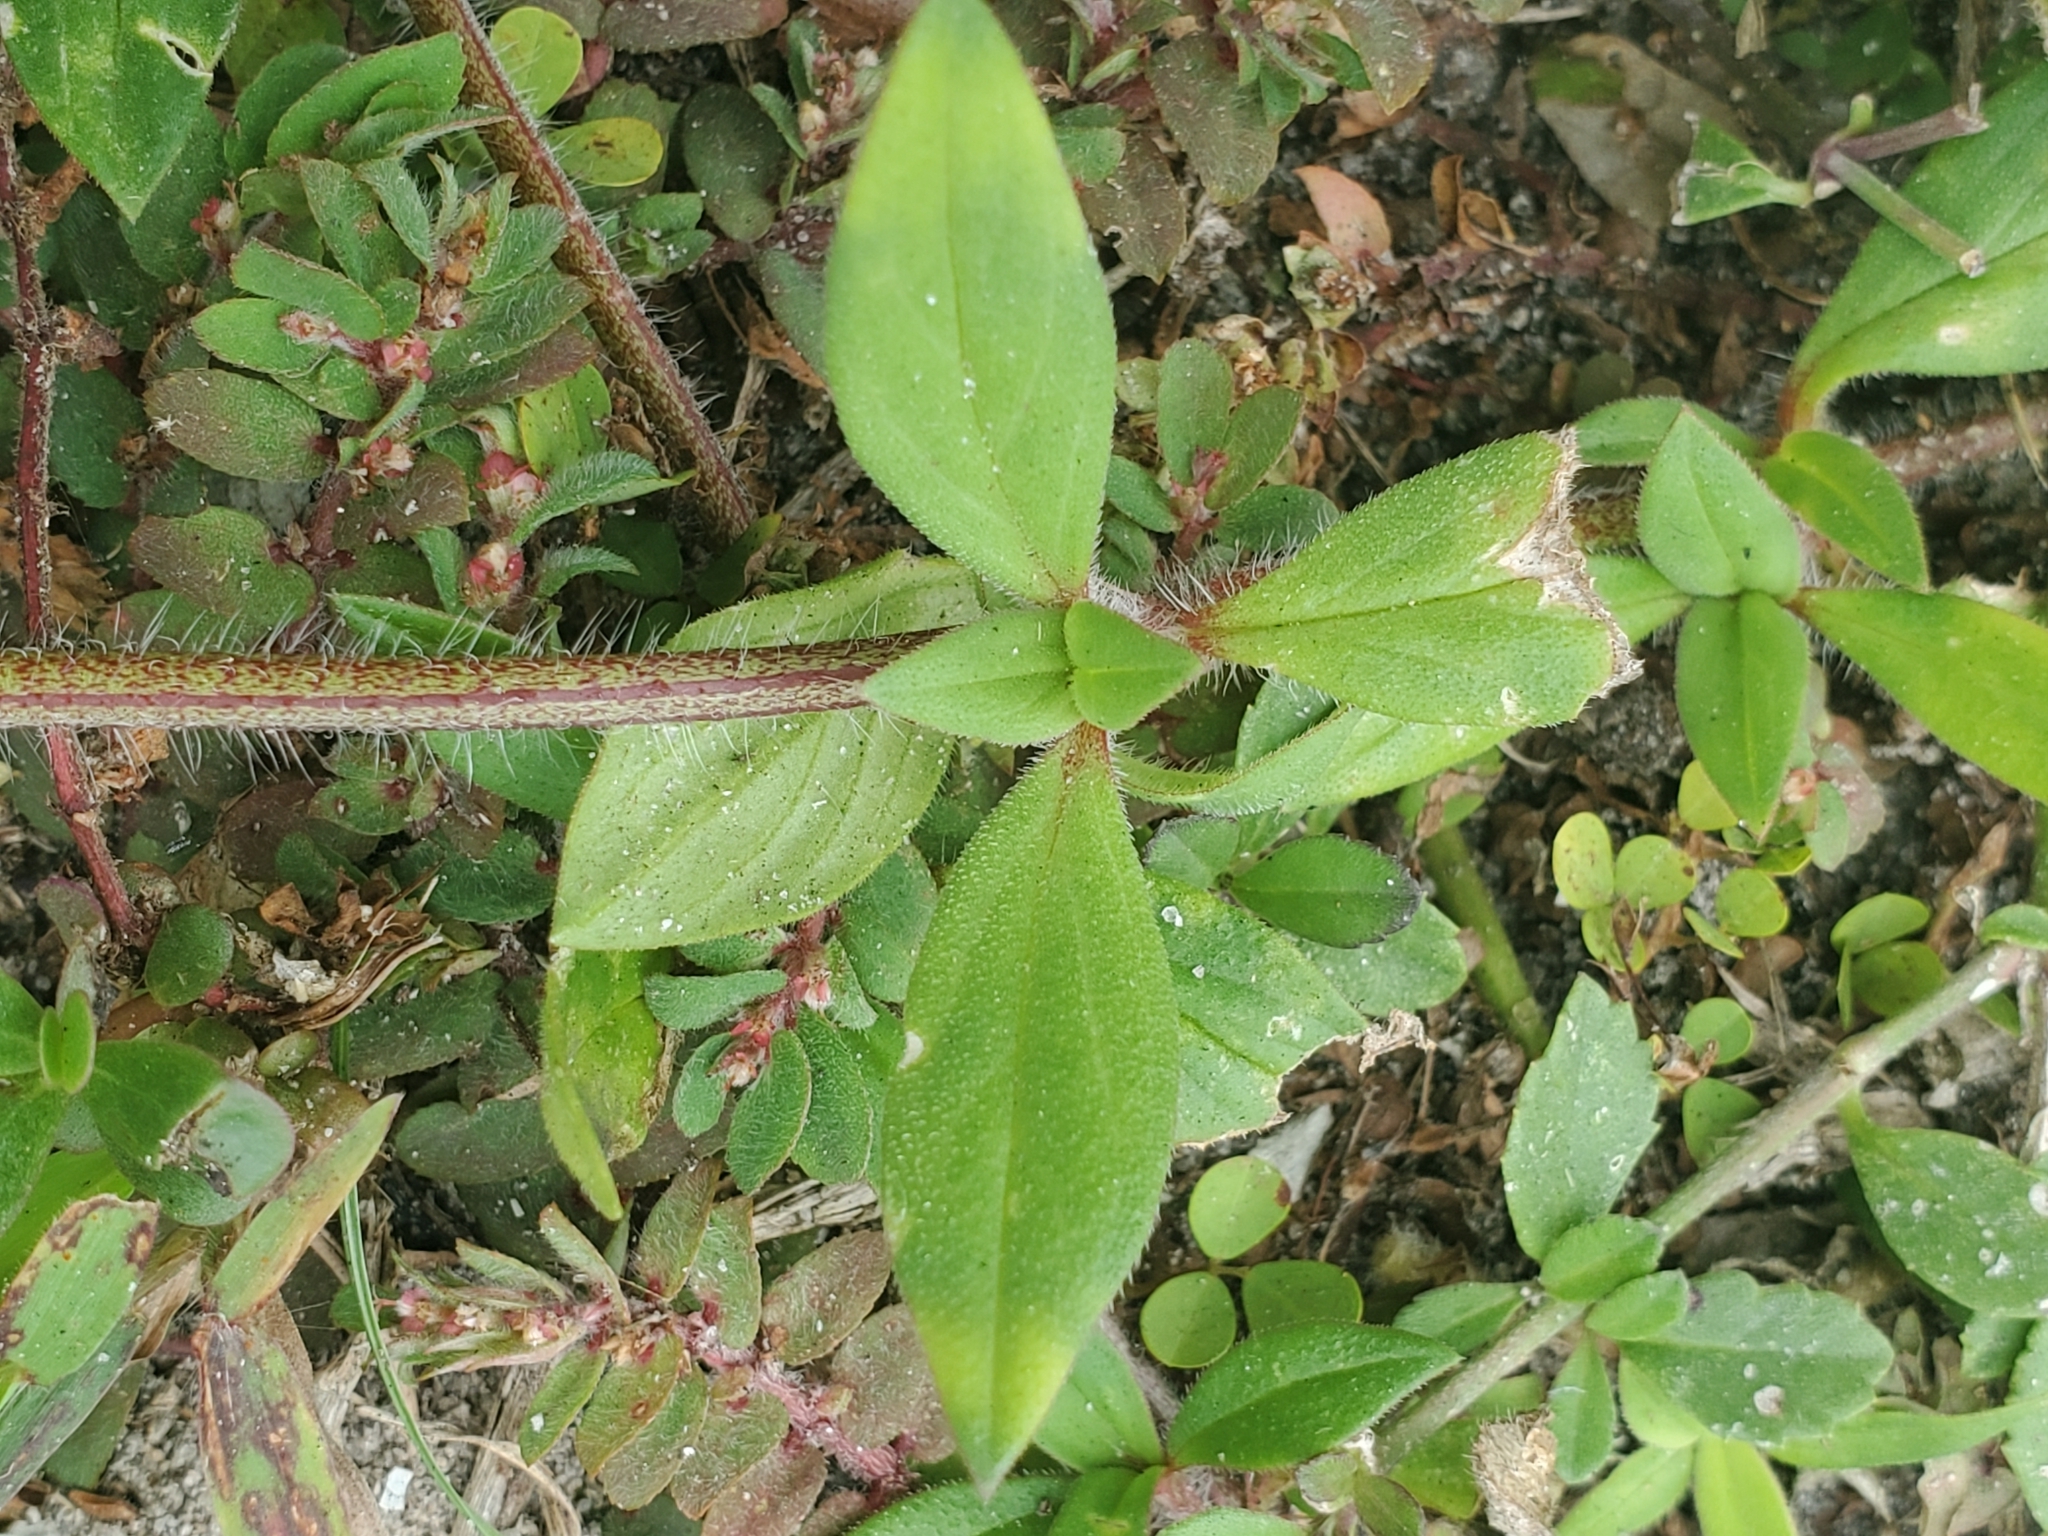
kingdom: Plantae
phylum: Tracheophyta
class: Magnoliopsida
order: Gentianales
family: Rubiaceae
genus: Richardia
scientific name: Richardia grandiflora
